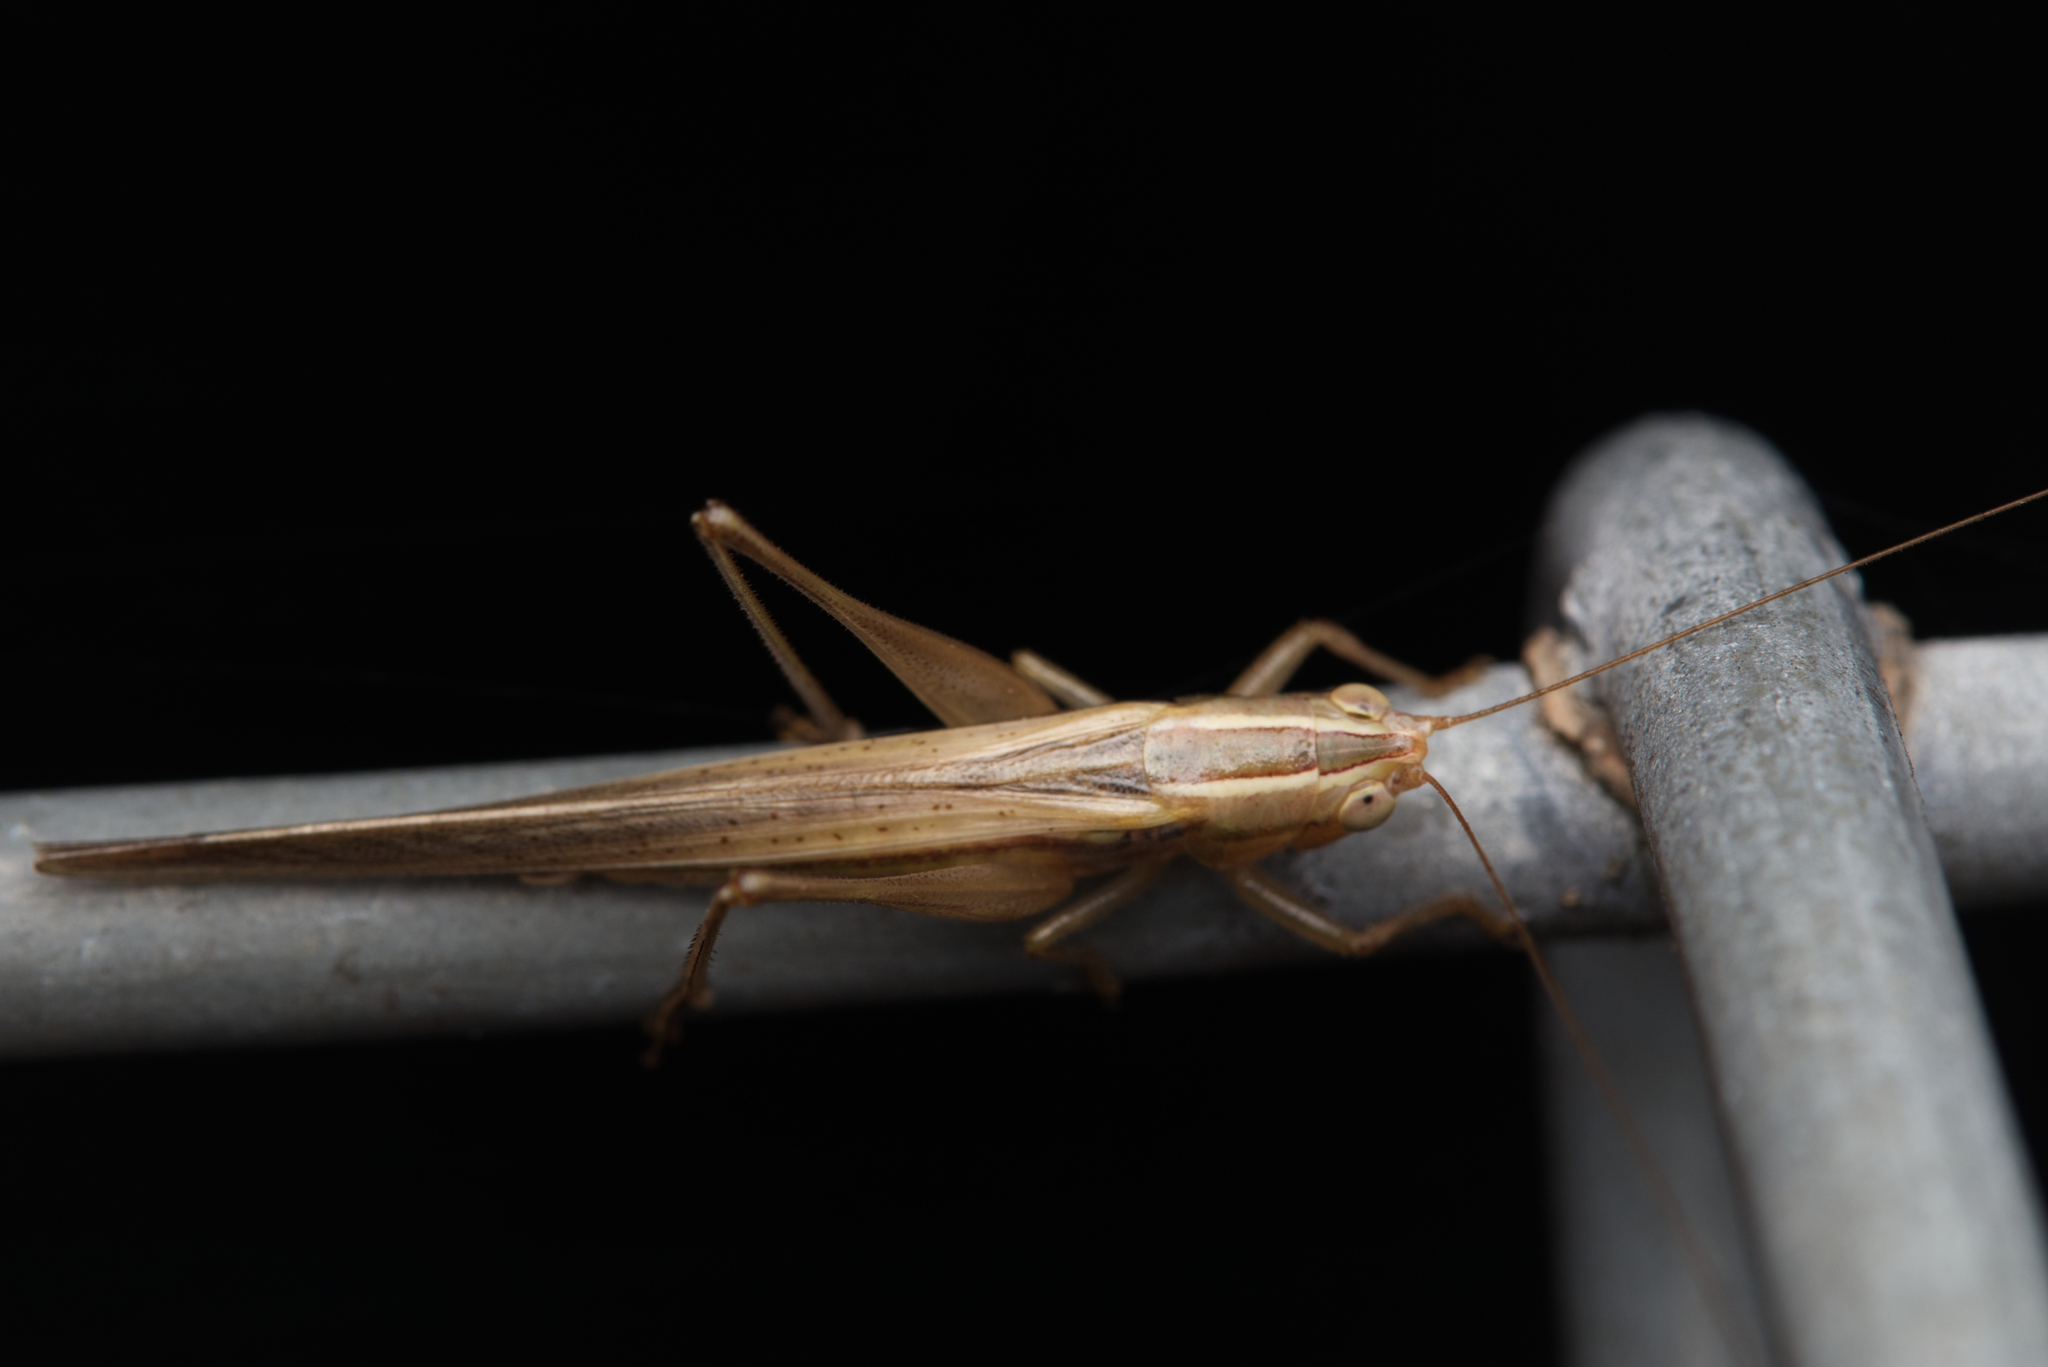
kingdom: Animalia
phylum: Arthropoda
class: Insecta
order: Orthoptera
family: Tettigoniidae
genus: Conocephalus
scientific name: Conocephalus upoluensis
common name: Upolu meadow katydid
